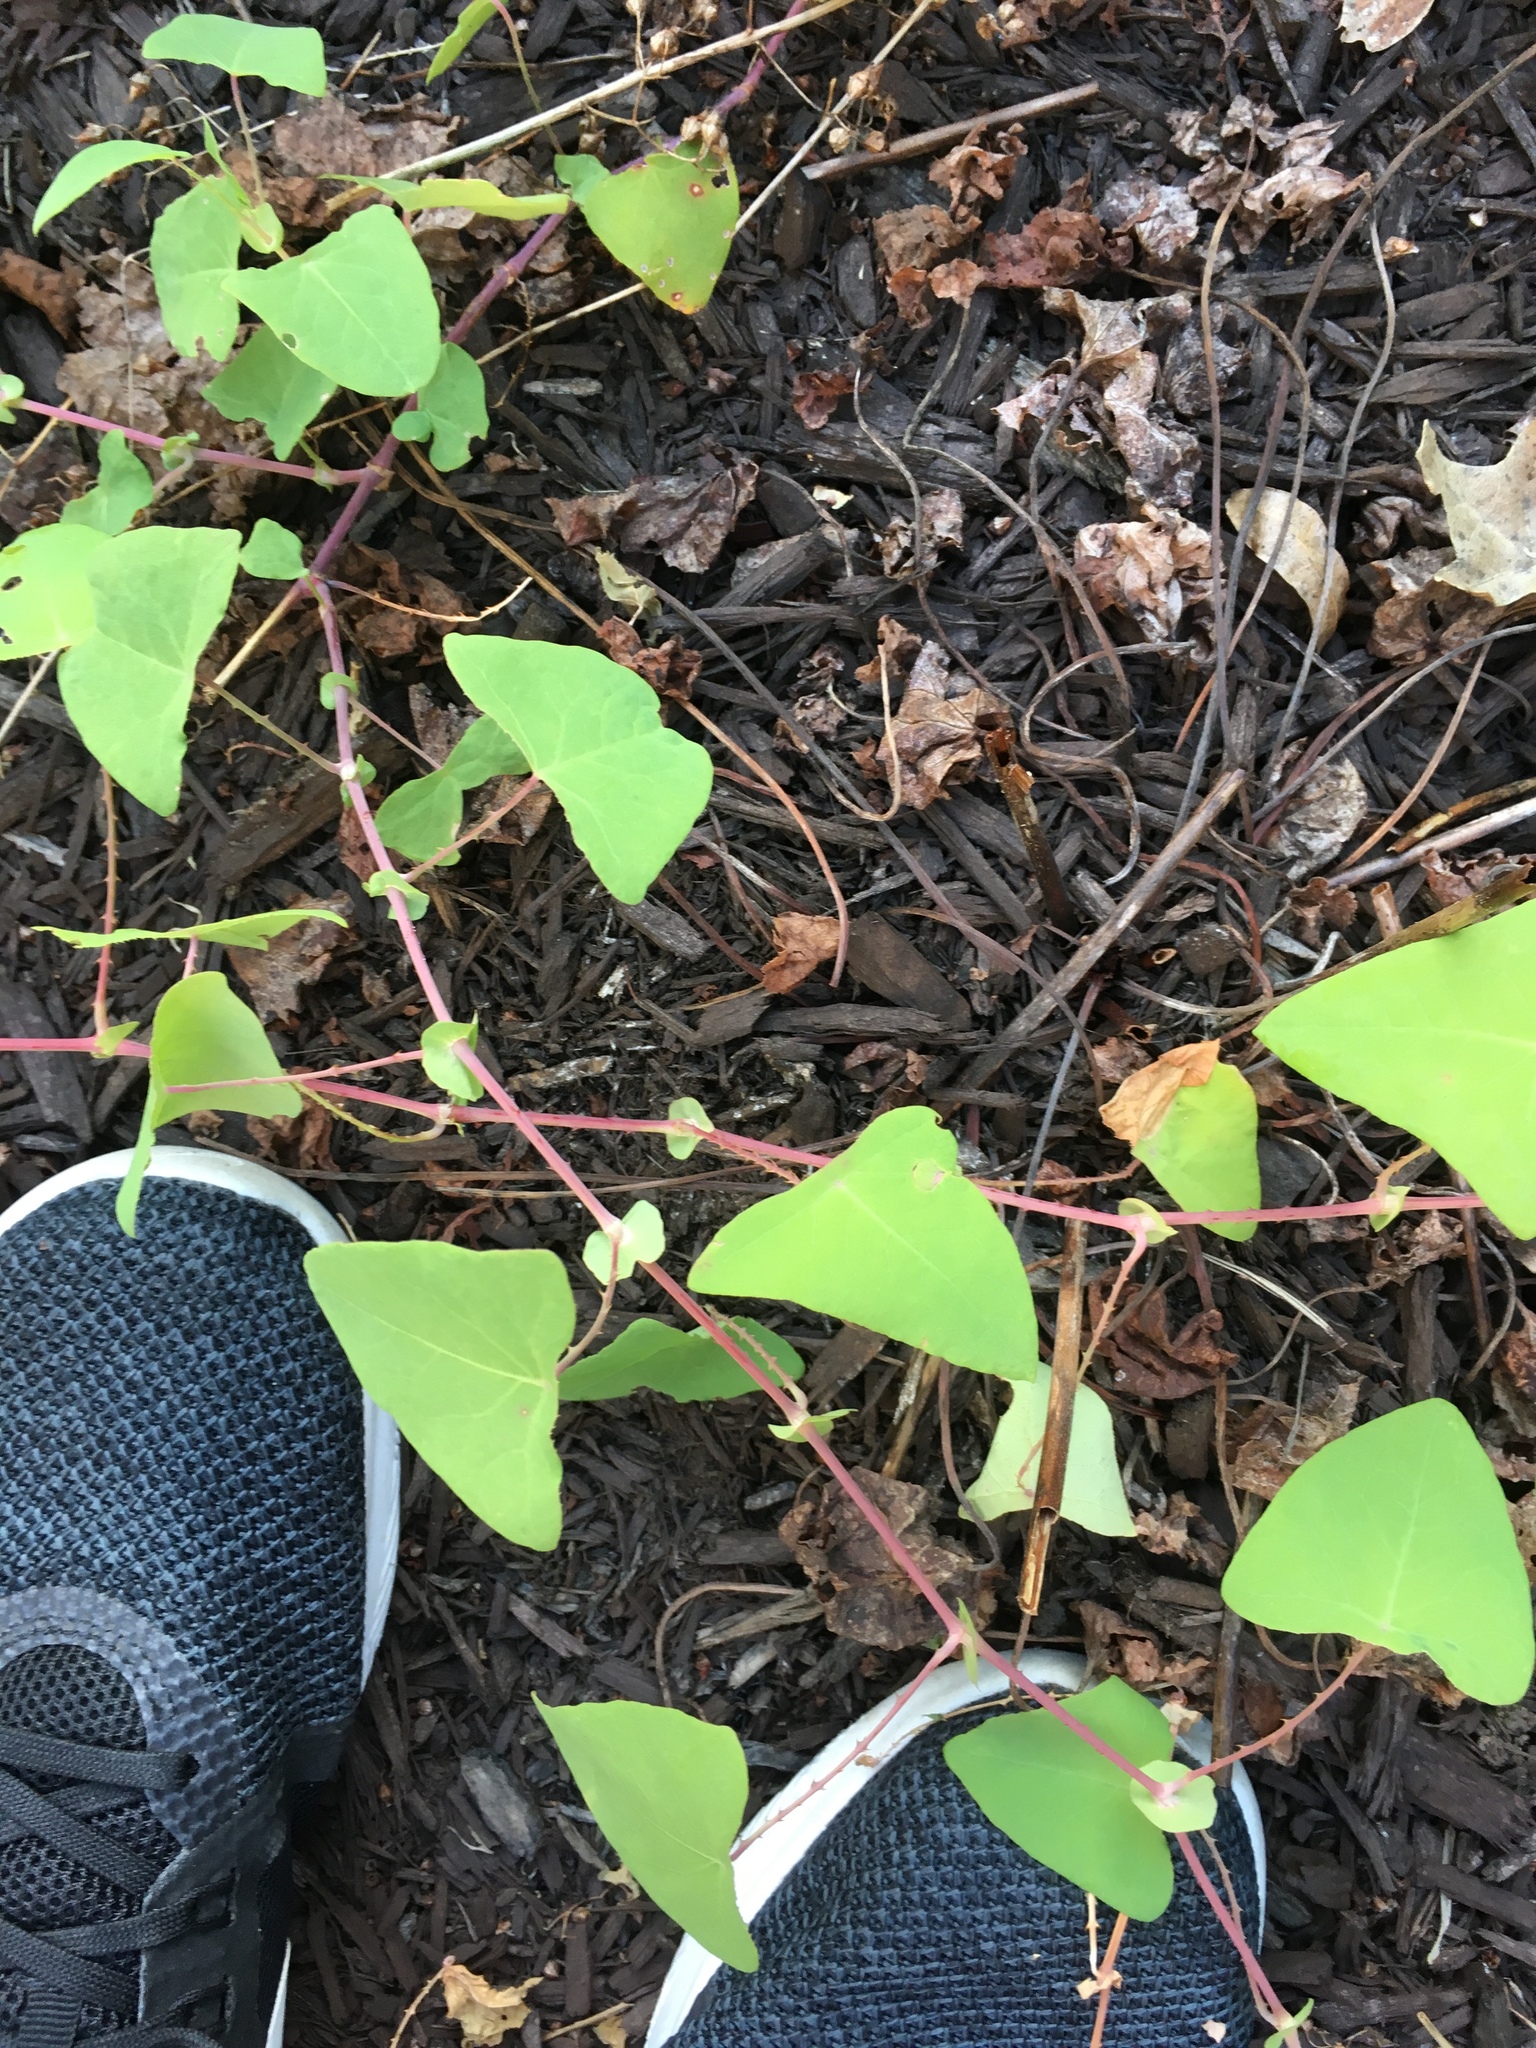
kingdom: Plantae
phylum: Tracheophyta
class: Magnoliopsida
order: Caryophyllales
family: Polygonaceae
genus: Persicaria
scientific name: Persicaria perfoliata
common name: Asiatic tearthumb
